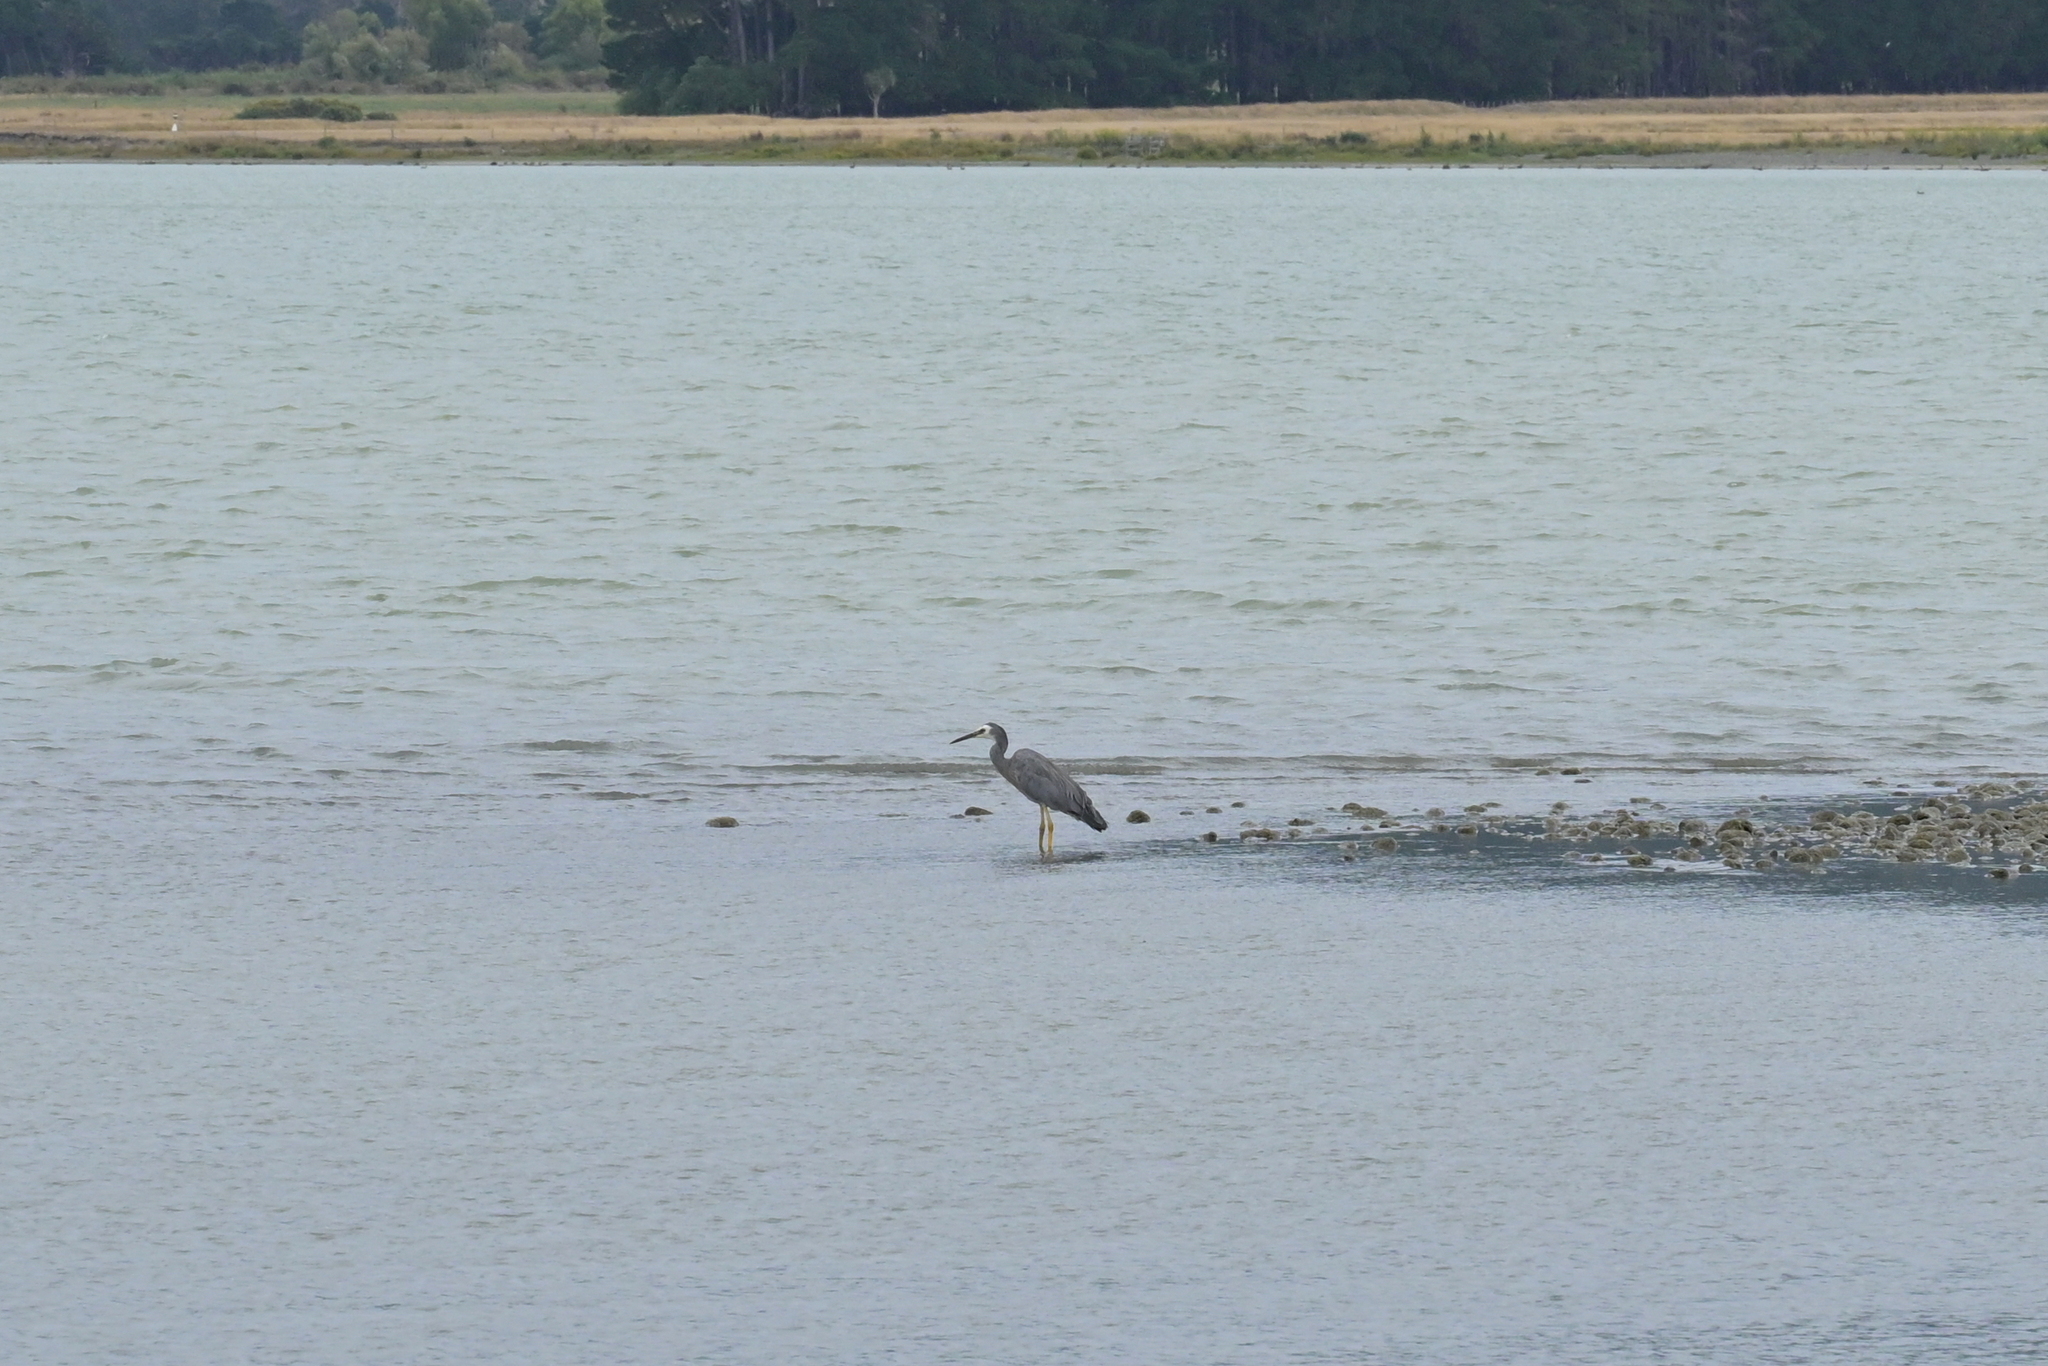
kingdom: Animalia
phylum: Chordata
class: Aves
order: Pelecaniformes
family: Ardeidae
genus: Egretta
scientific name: Egretta novaehollandiae
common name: White-faced heron
